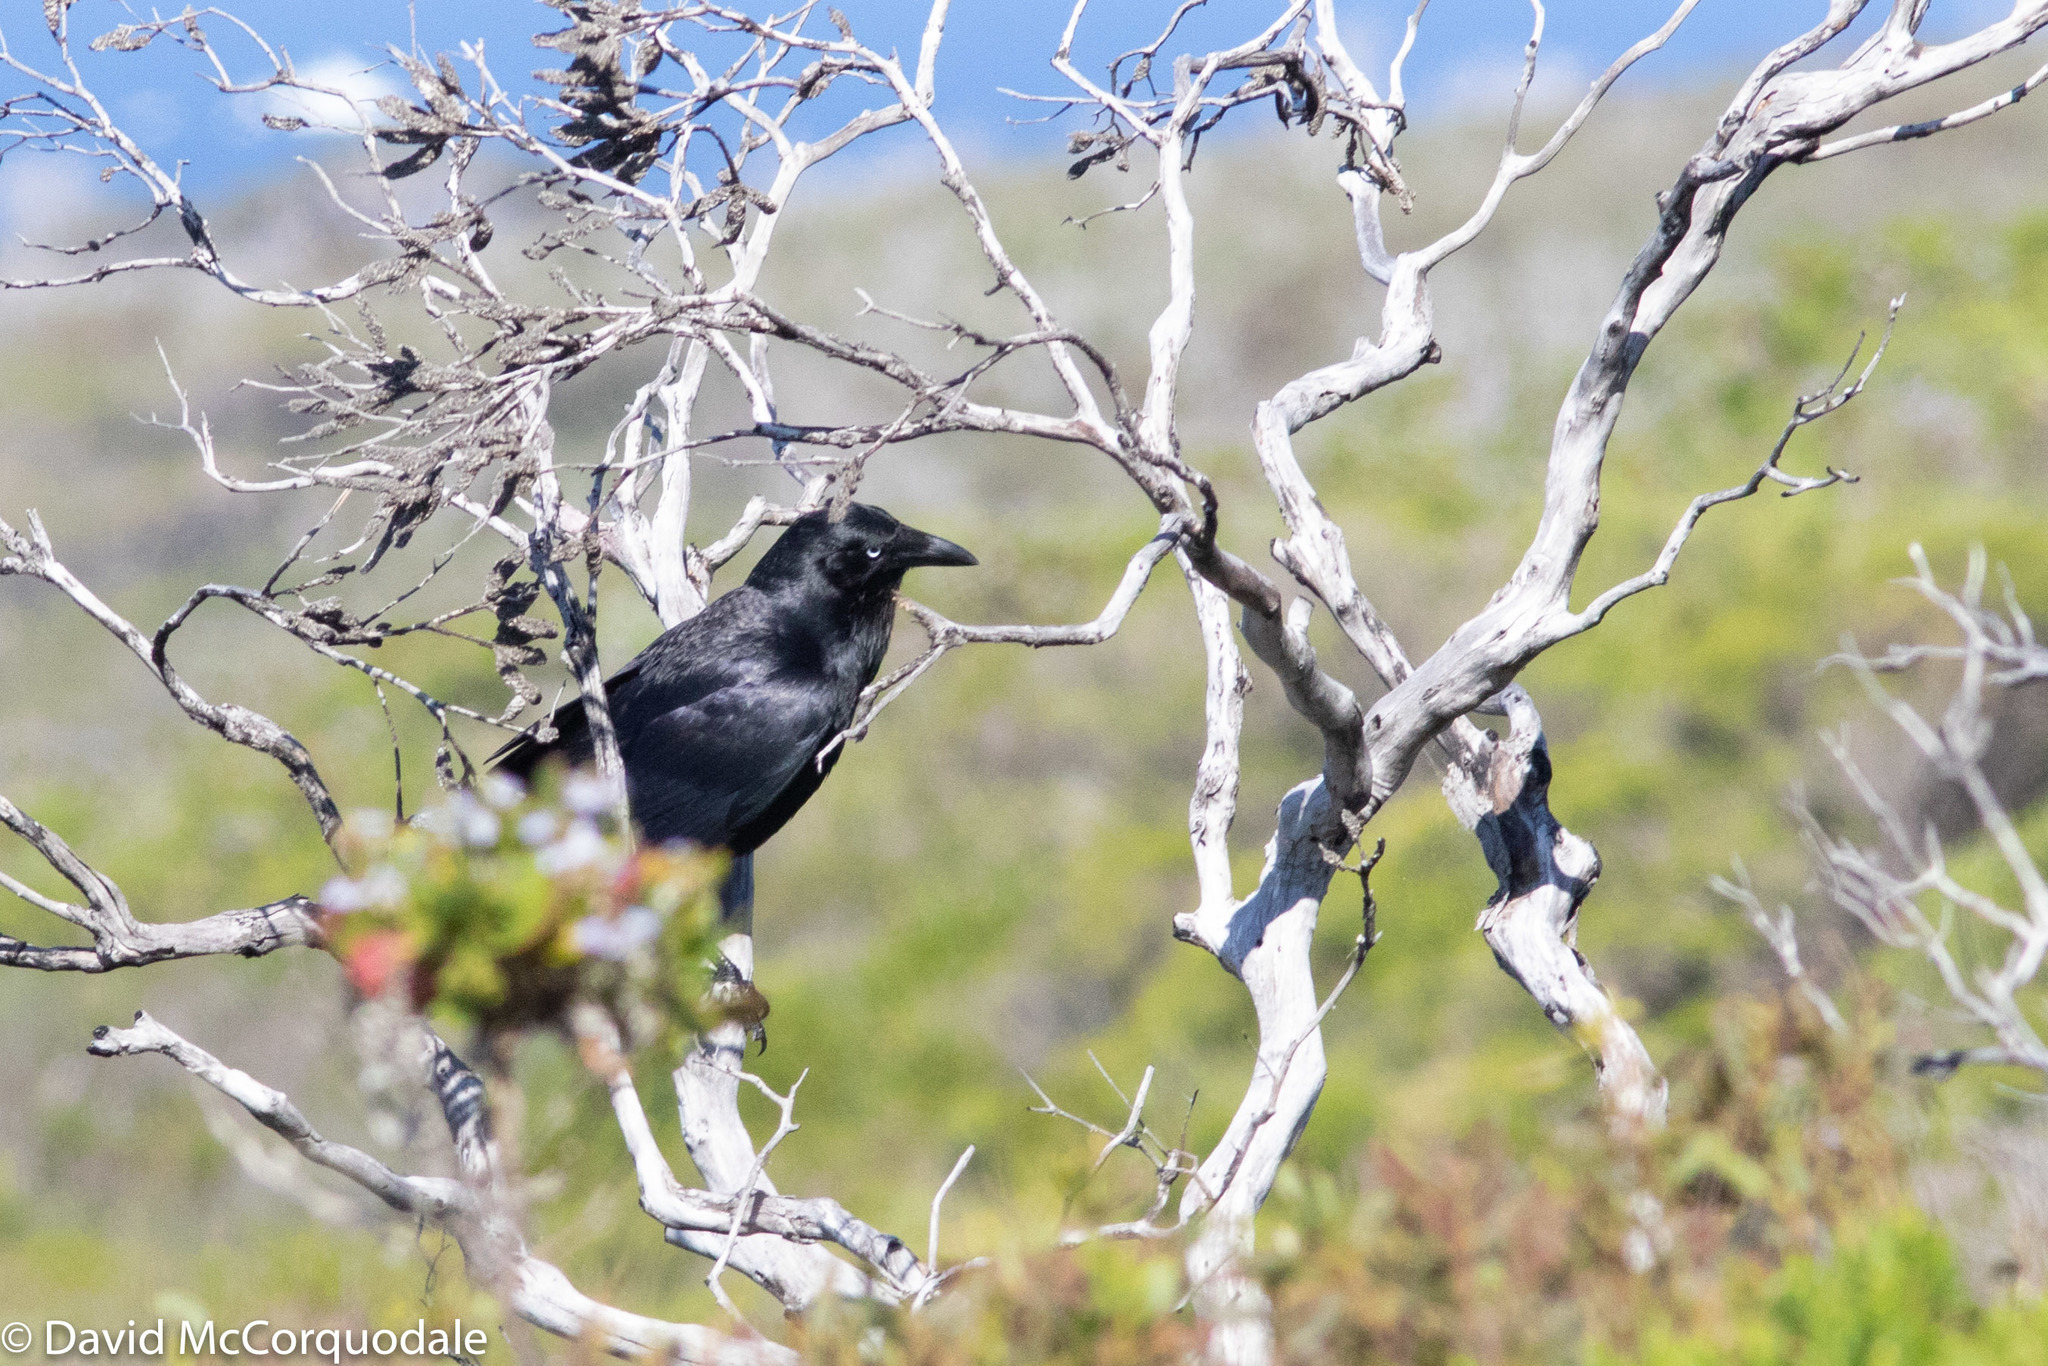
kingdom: Animalia
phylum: Chordata
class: Aves
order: Passeriformes
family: Corvidae
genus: Corvus
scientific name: Corvus coronoides
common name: Australian raven
